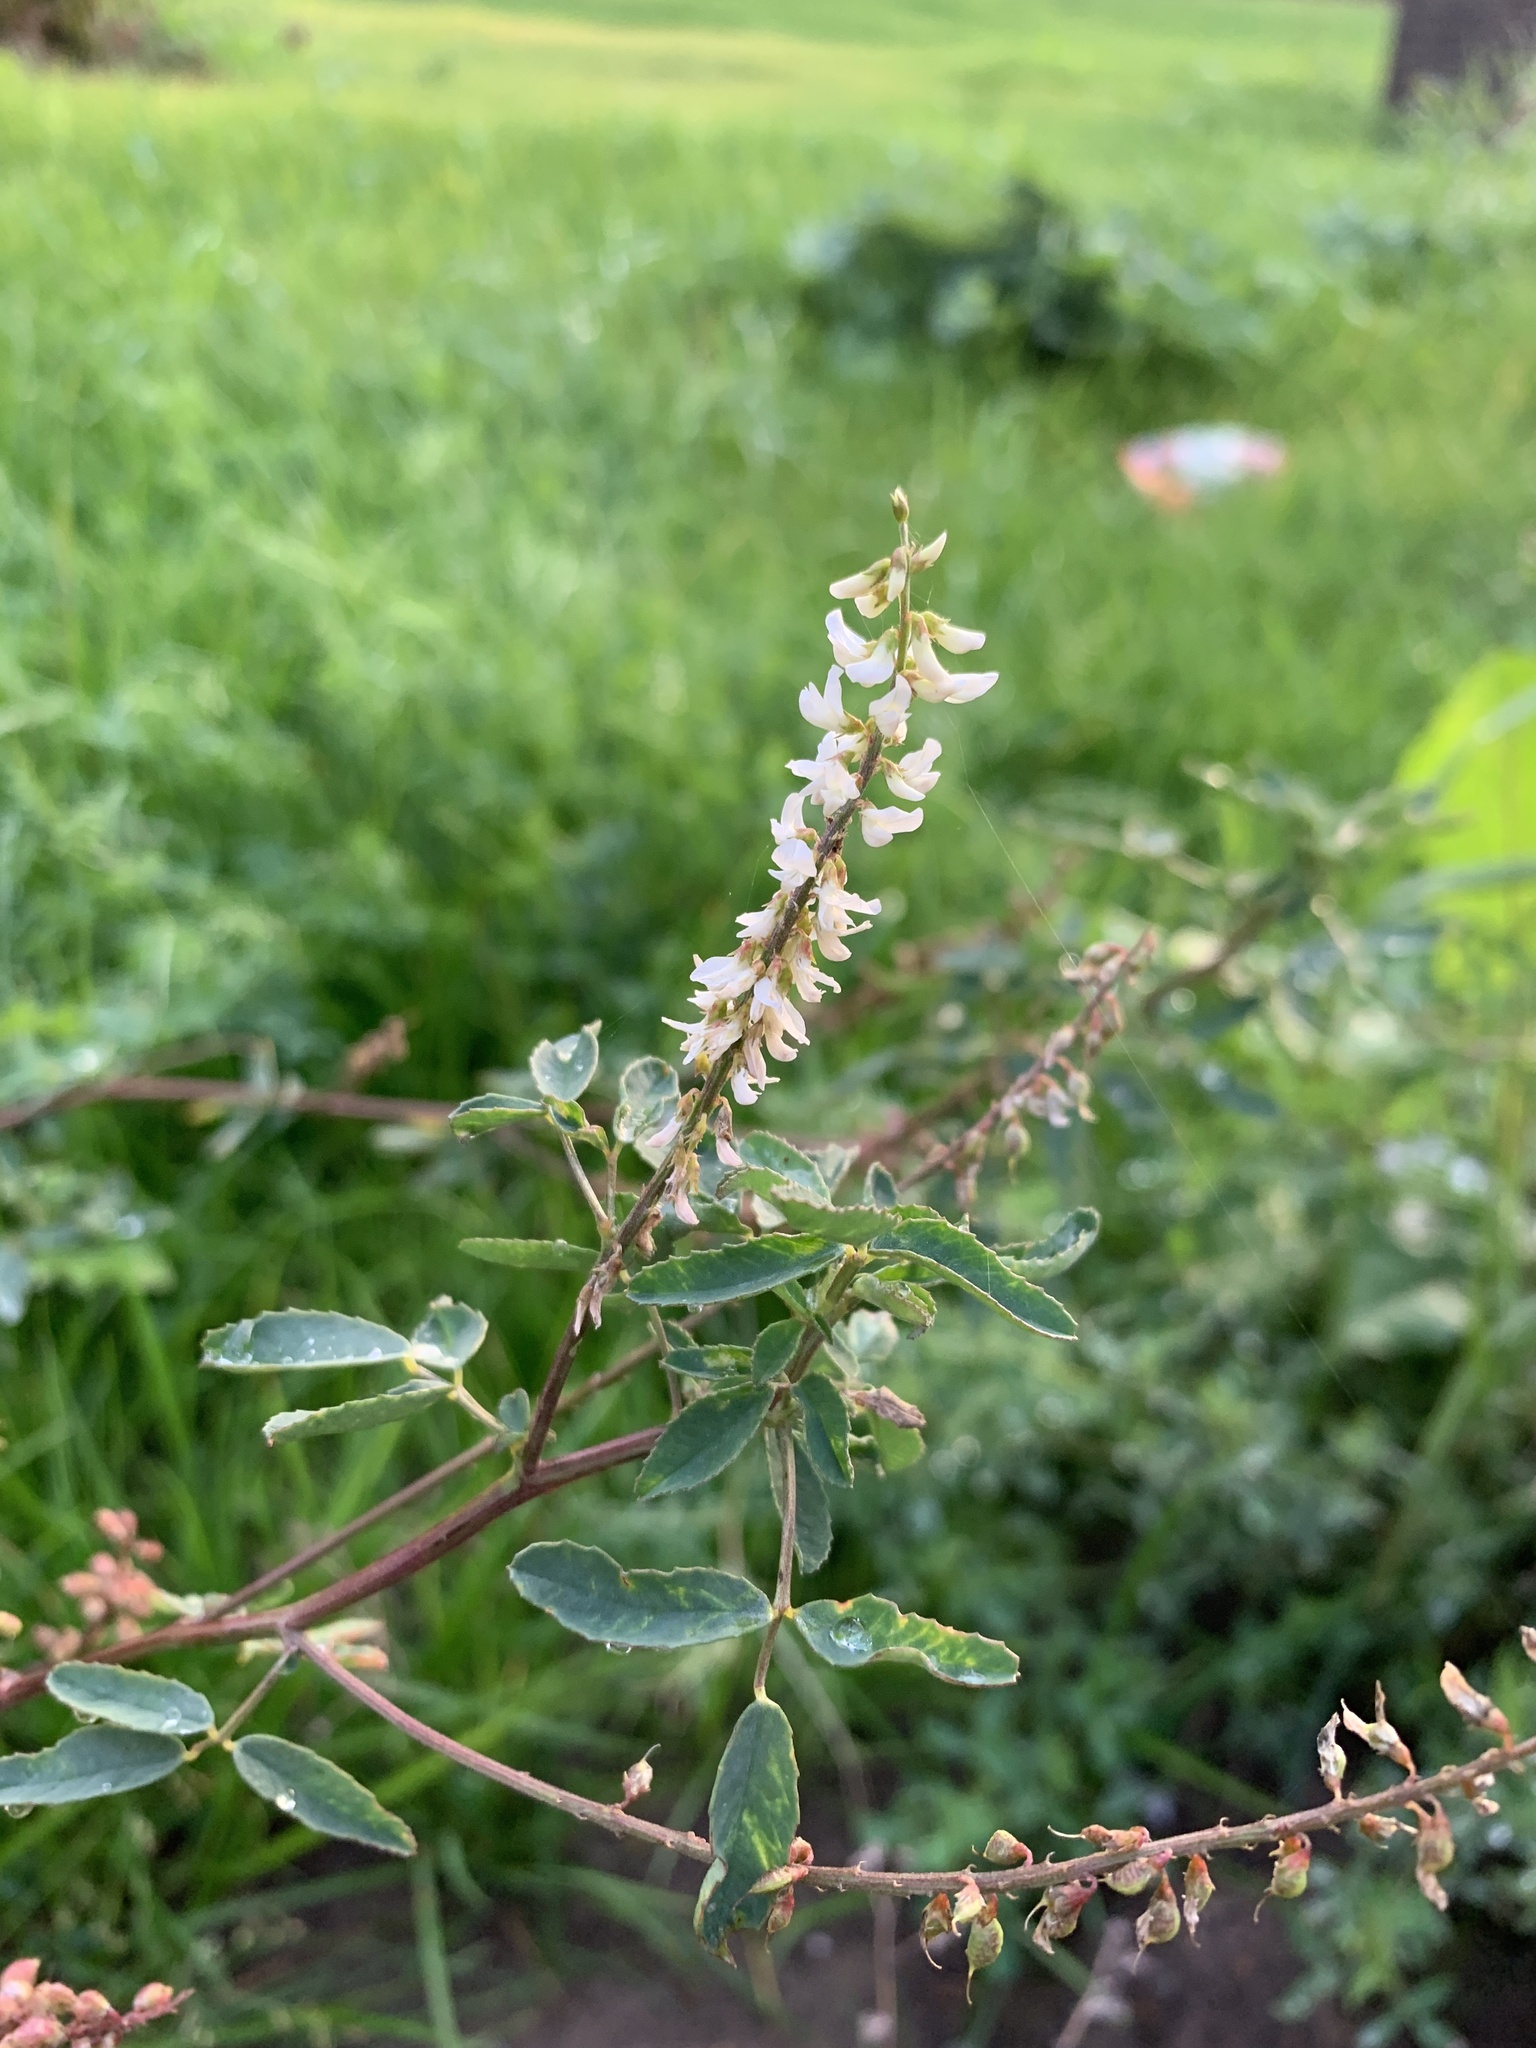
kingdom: Plantae
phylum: Tracheophyta
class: Magnoliopsida
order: Fabales
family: Fabaceae
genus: Melilotus
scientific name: Melilotus albus
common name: White melilot
